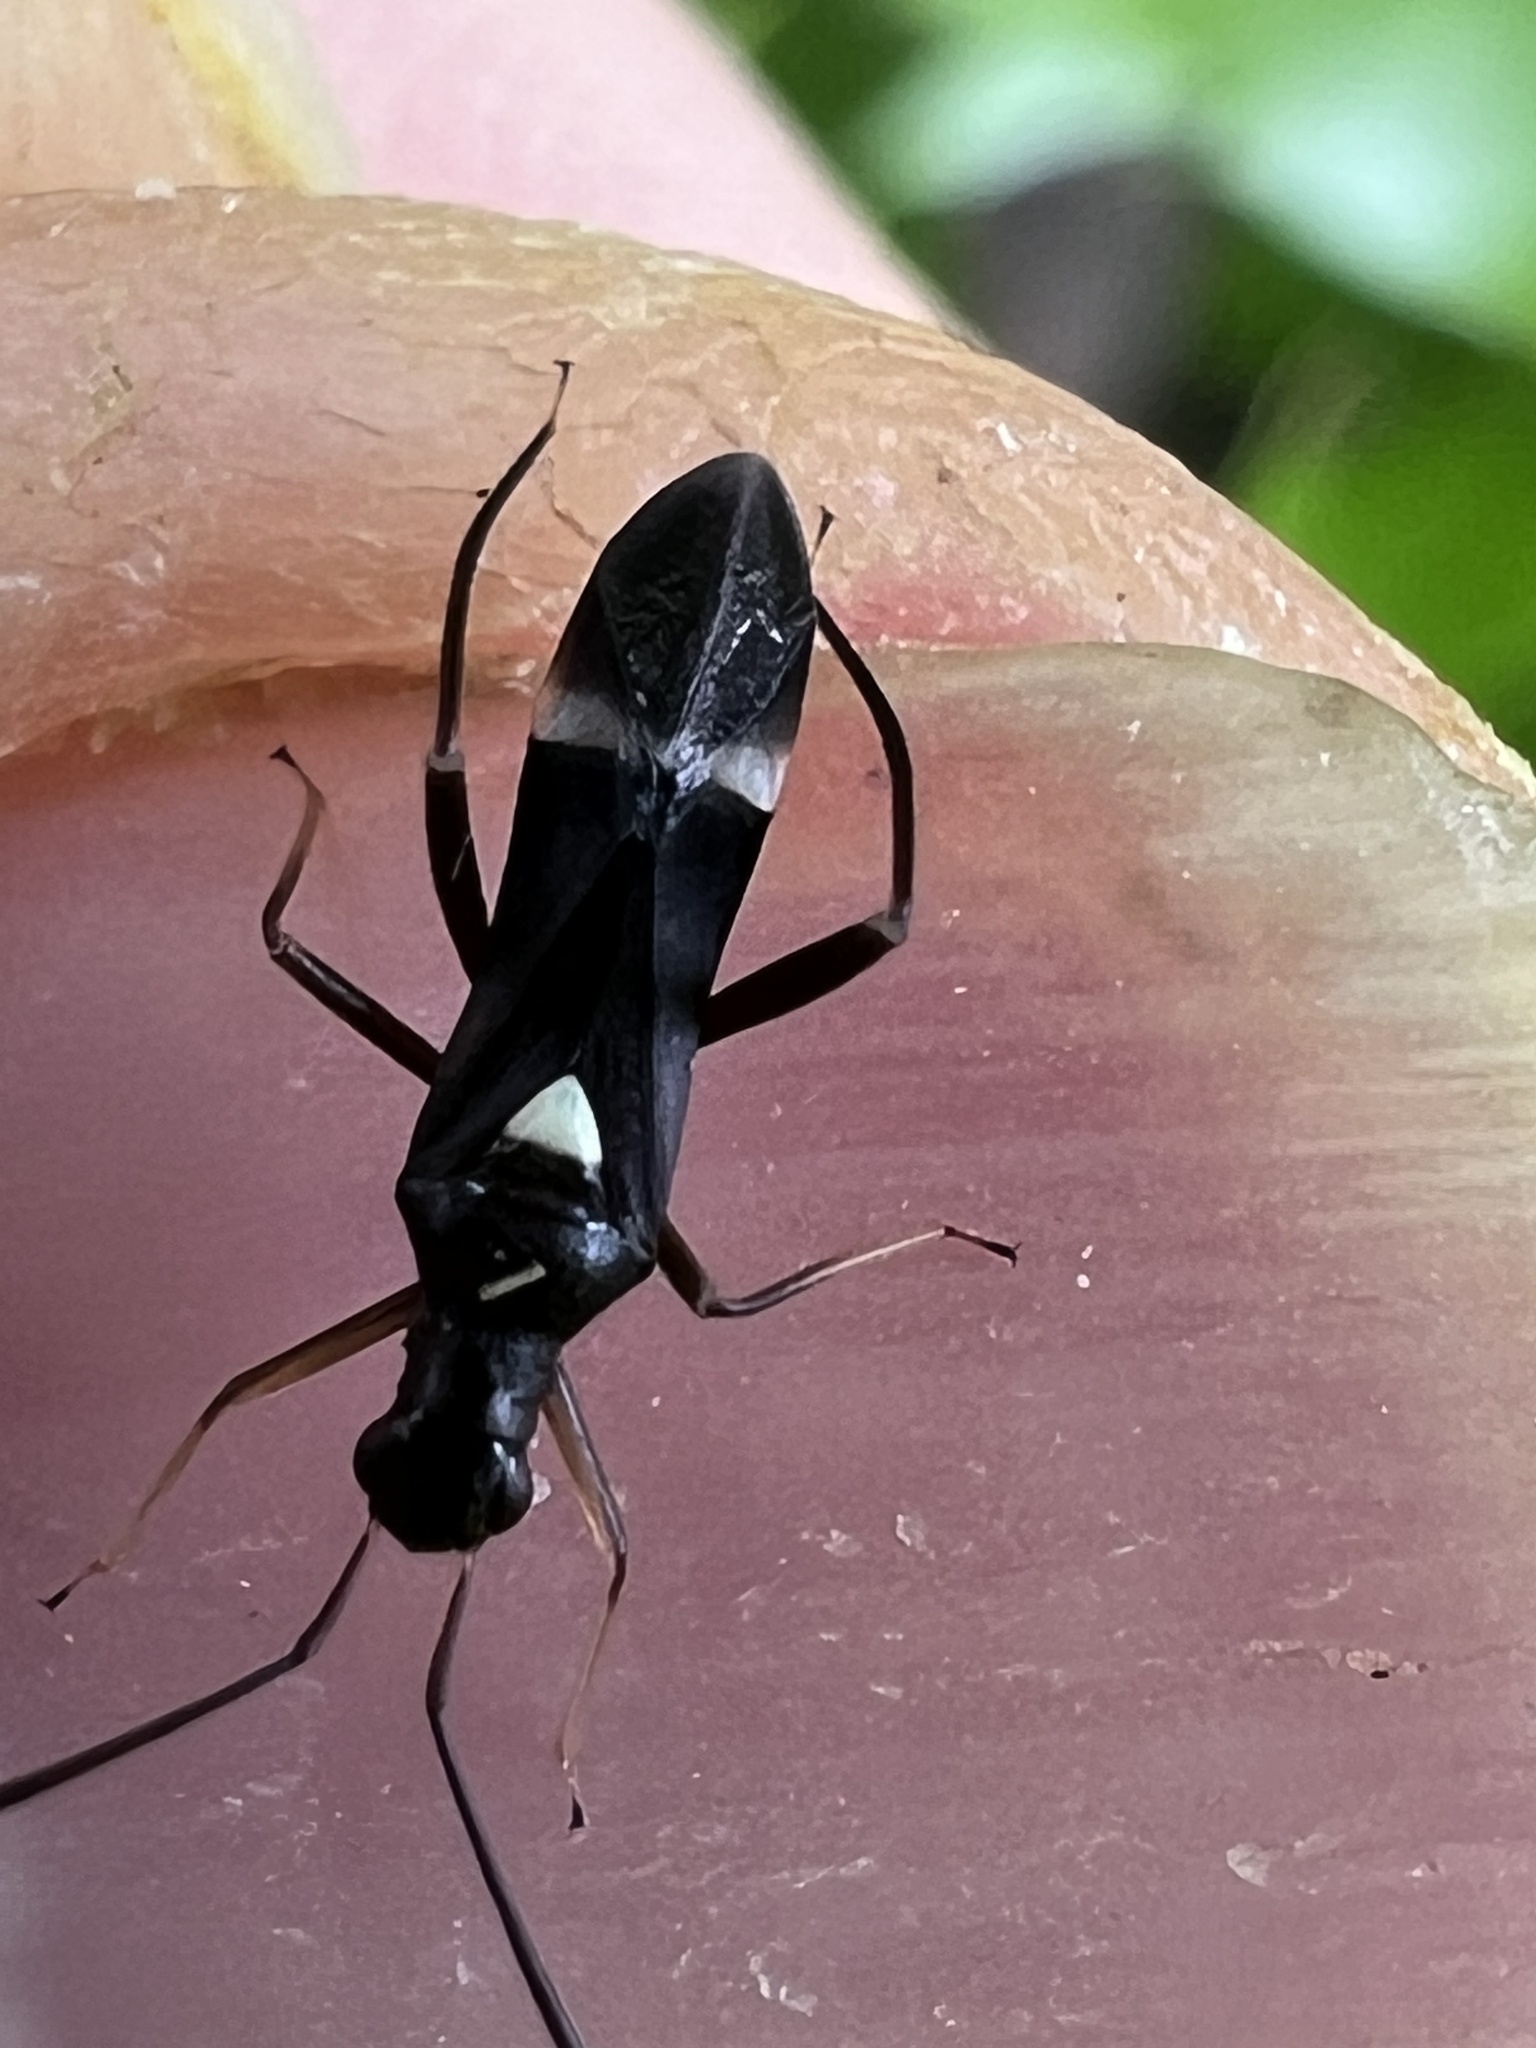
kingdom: Animalia
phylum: Arthropoda
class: Insecta
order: Hemiptera
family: Miridae
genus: Pseudoxenetus
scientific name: Pseudoxenetus regalis
